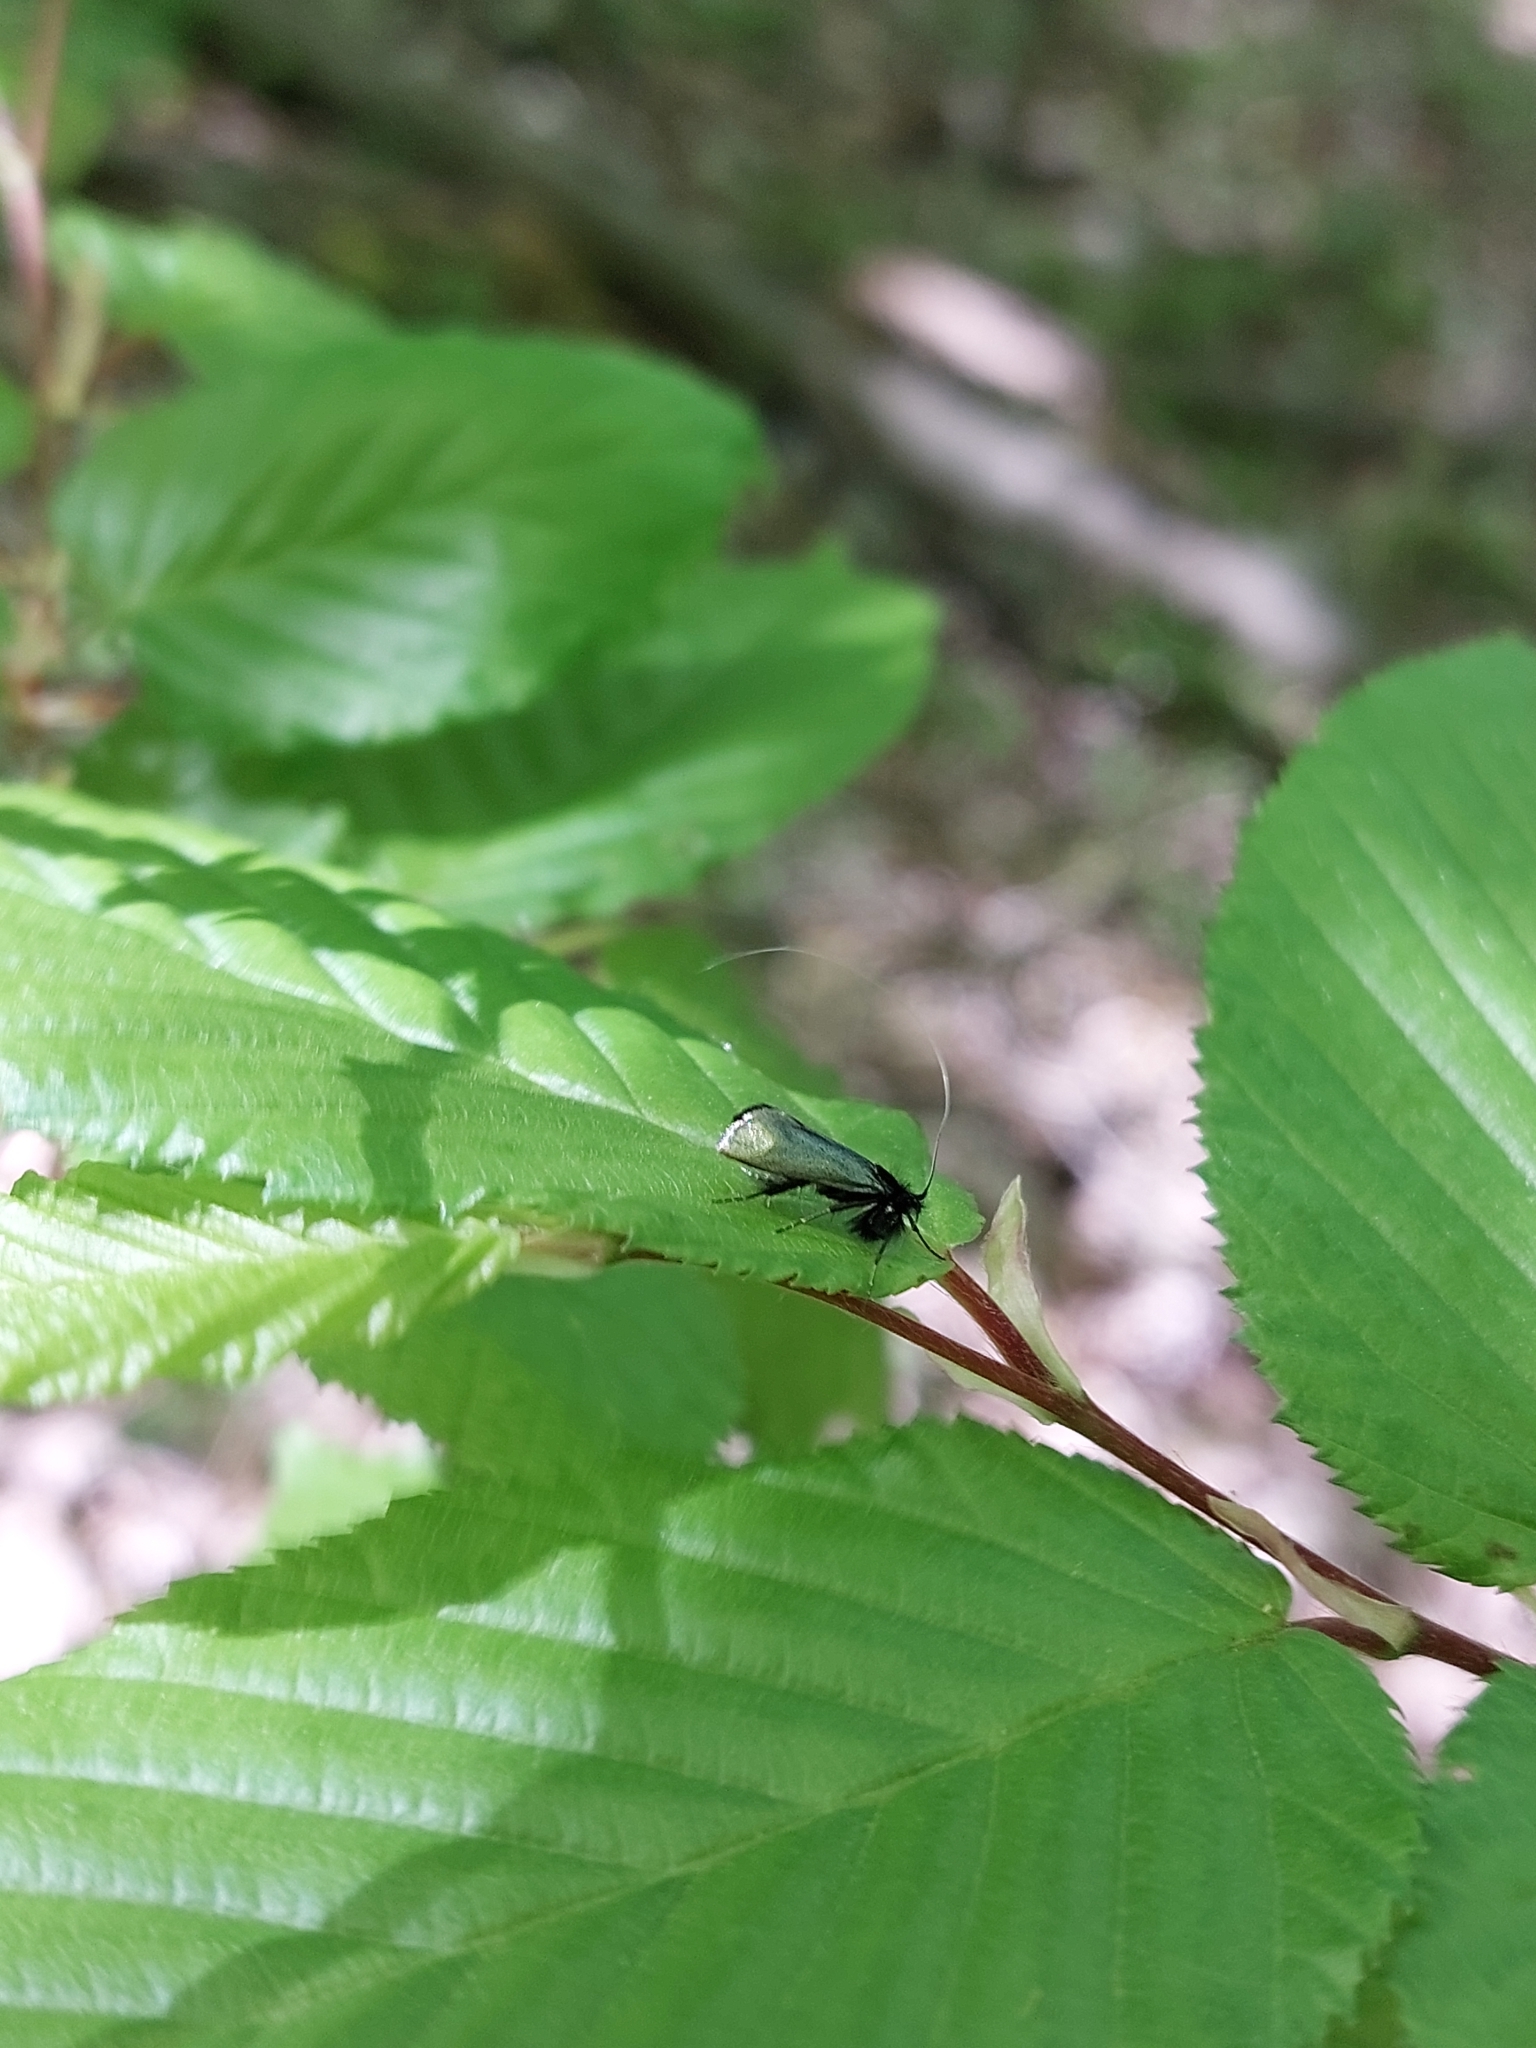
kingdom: Animalia
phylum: Arthropoda
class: Insecta
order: Lepidoptera
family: Adelidae
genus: Adela
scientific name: Adela viridella
